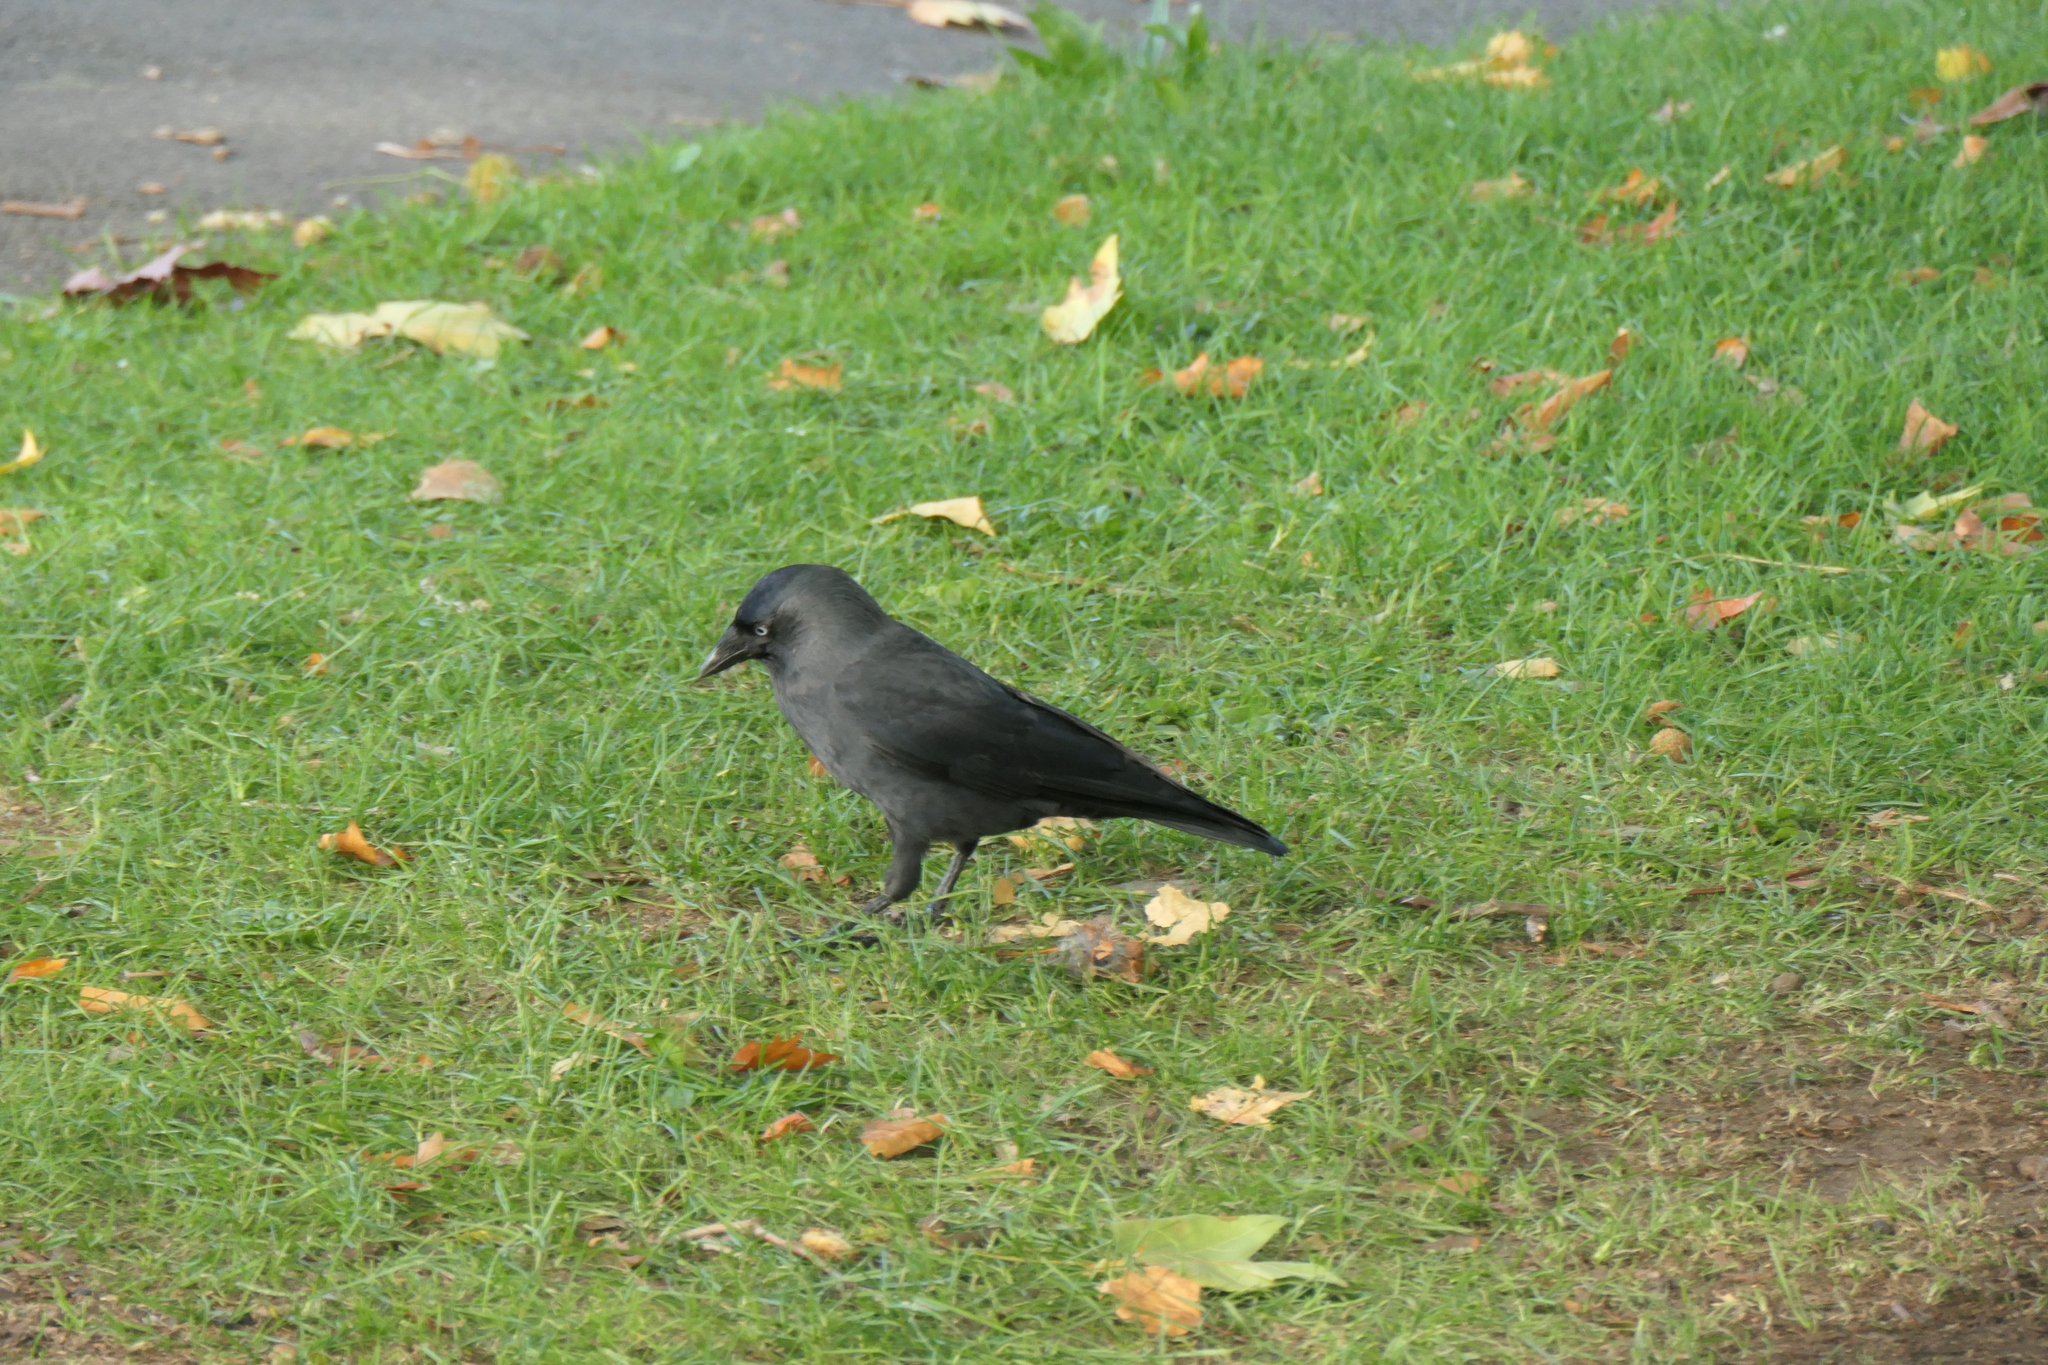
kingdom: Animalia
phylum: Chordata
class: Aves
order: Passeriformes
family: Corvidae
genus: Coloeus
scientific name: Coloeus monedula
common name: Western jackdaw
